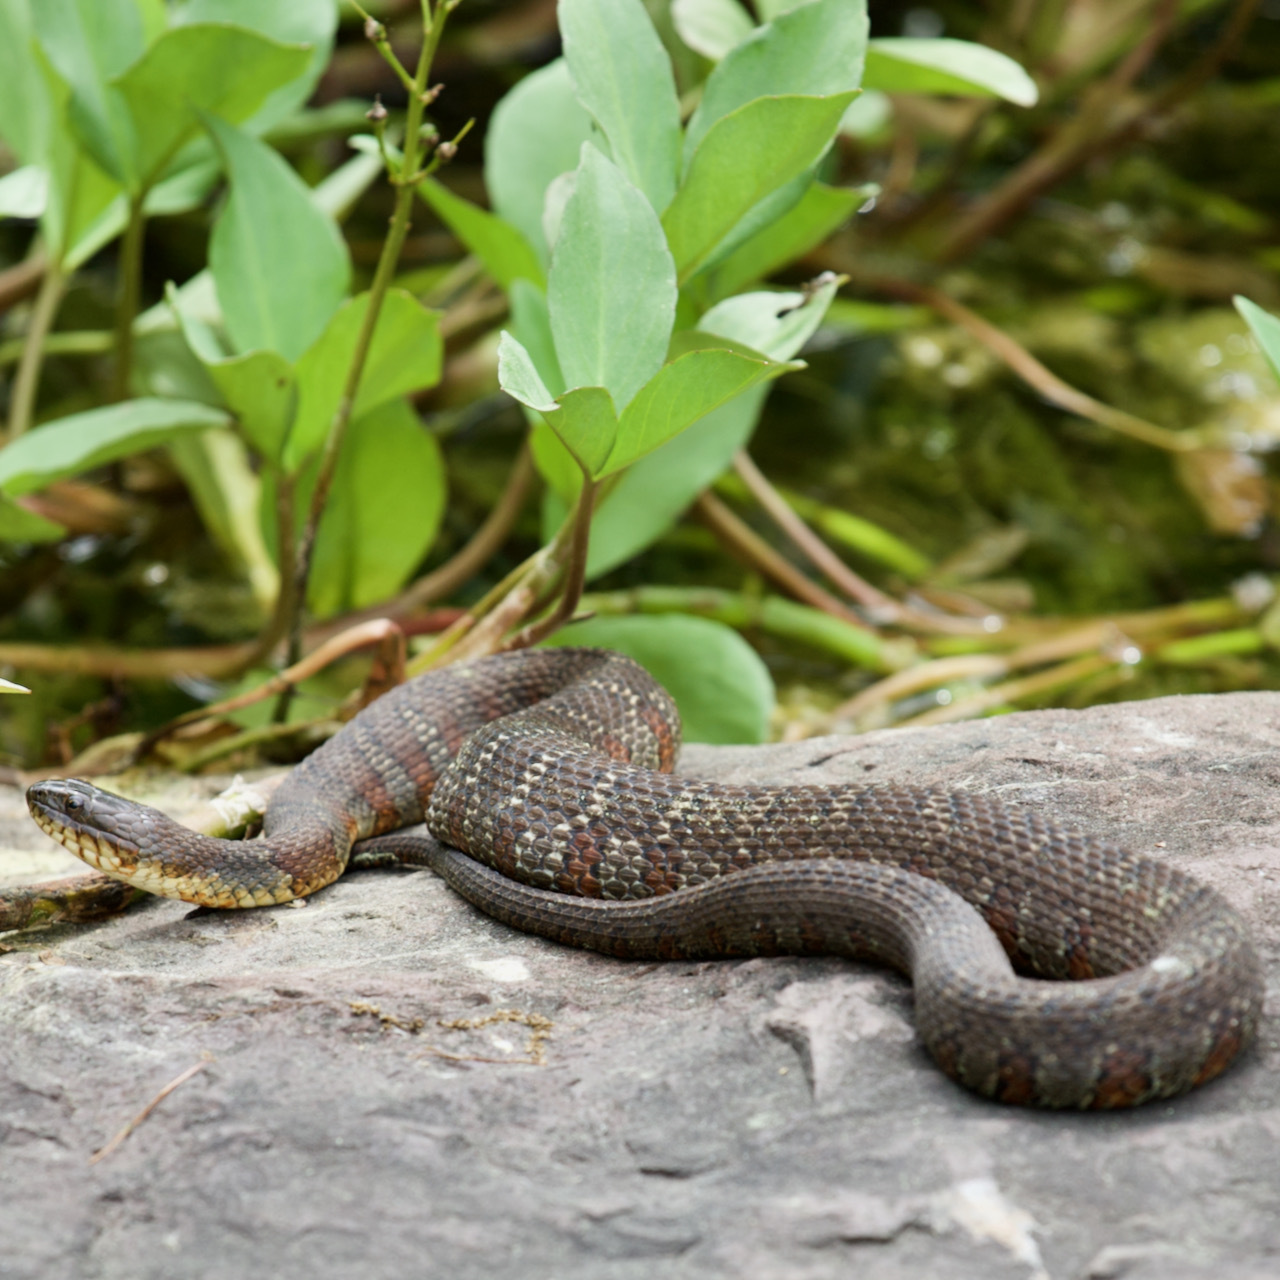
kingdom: Animalia
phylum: Chordata
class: Squamata
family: Colubridae
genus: Nerodia
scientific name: Nerodia sipedon
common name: Northern water snake
